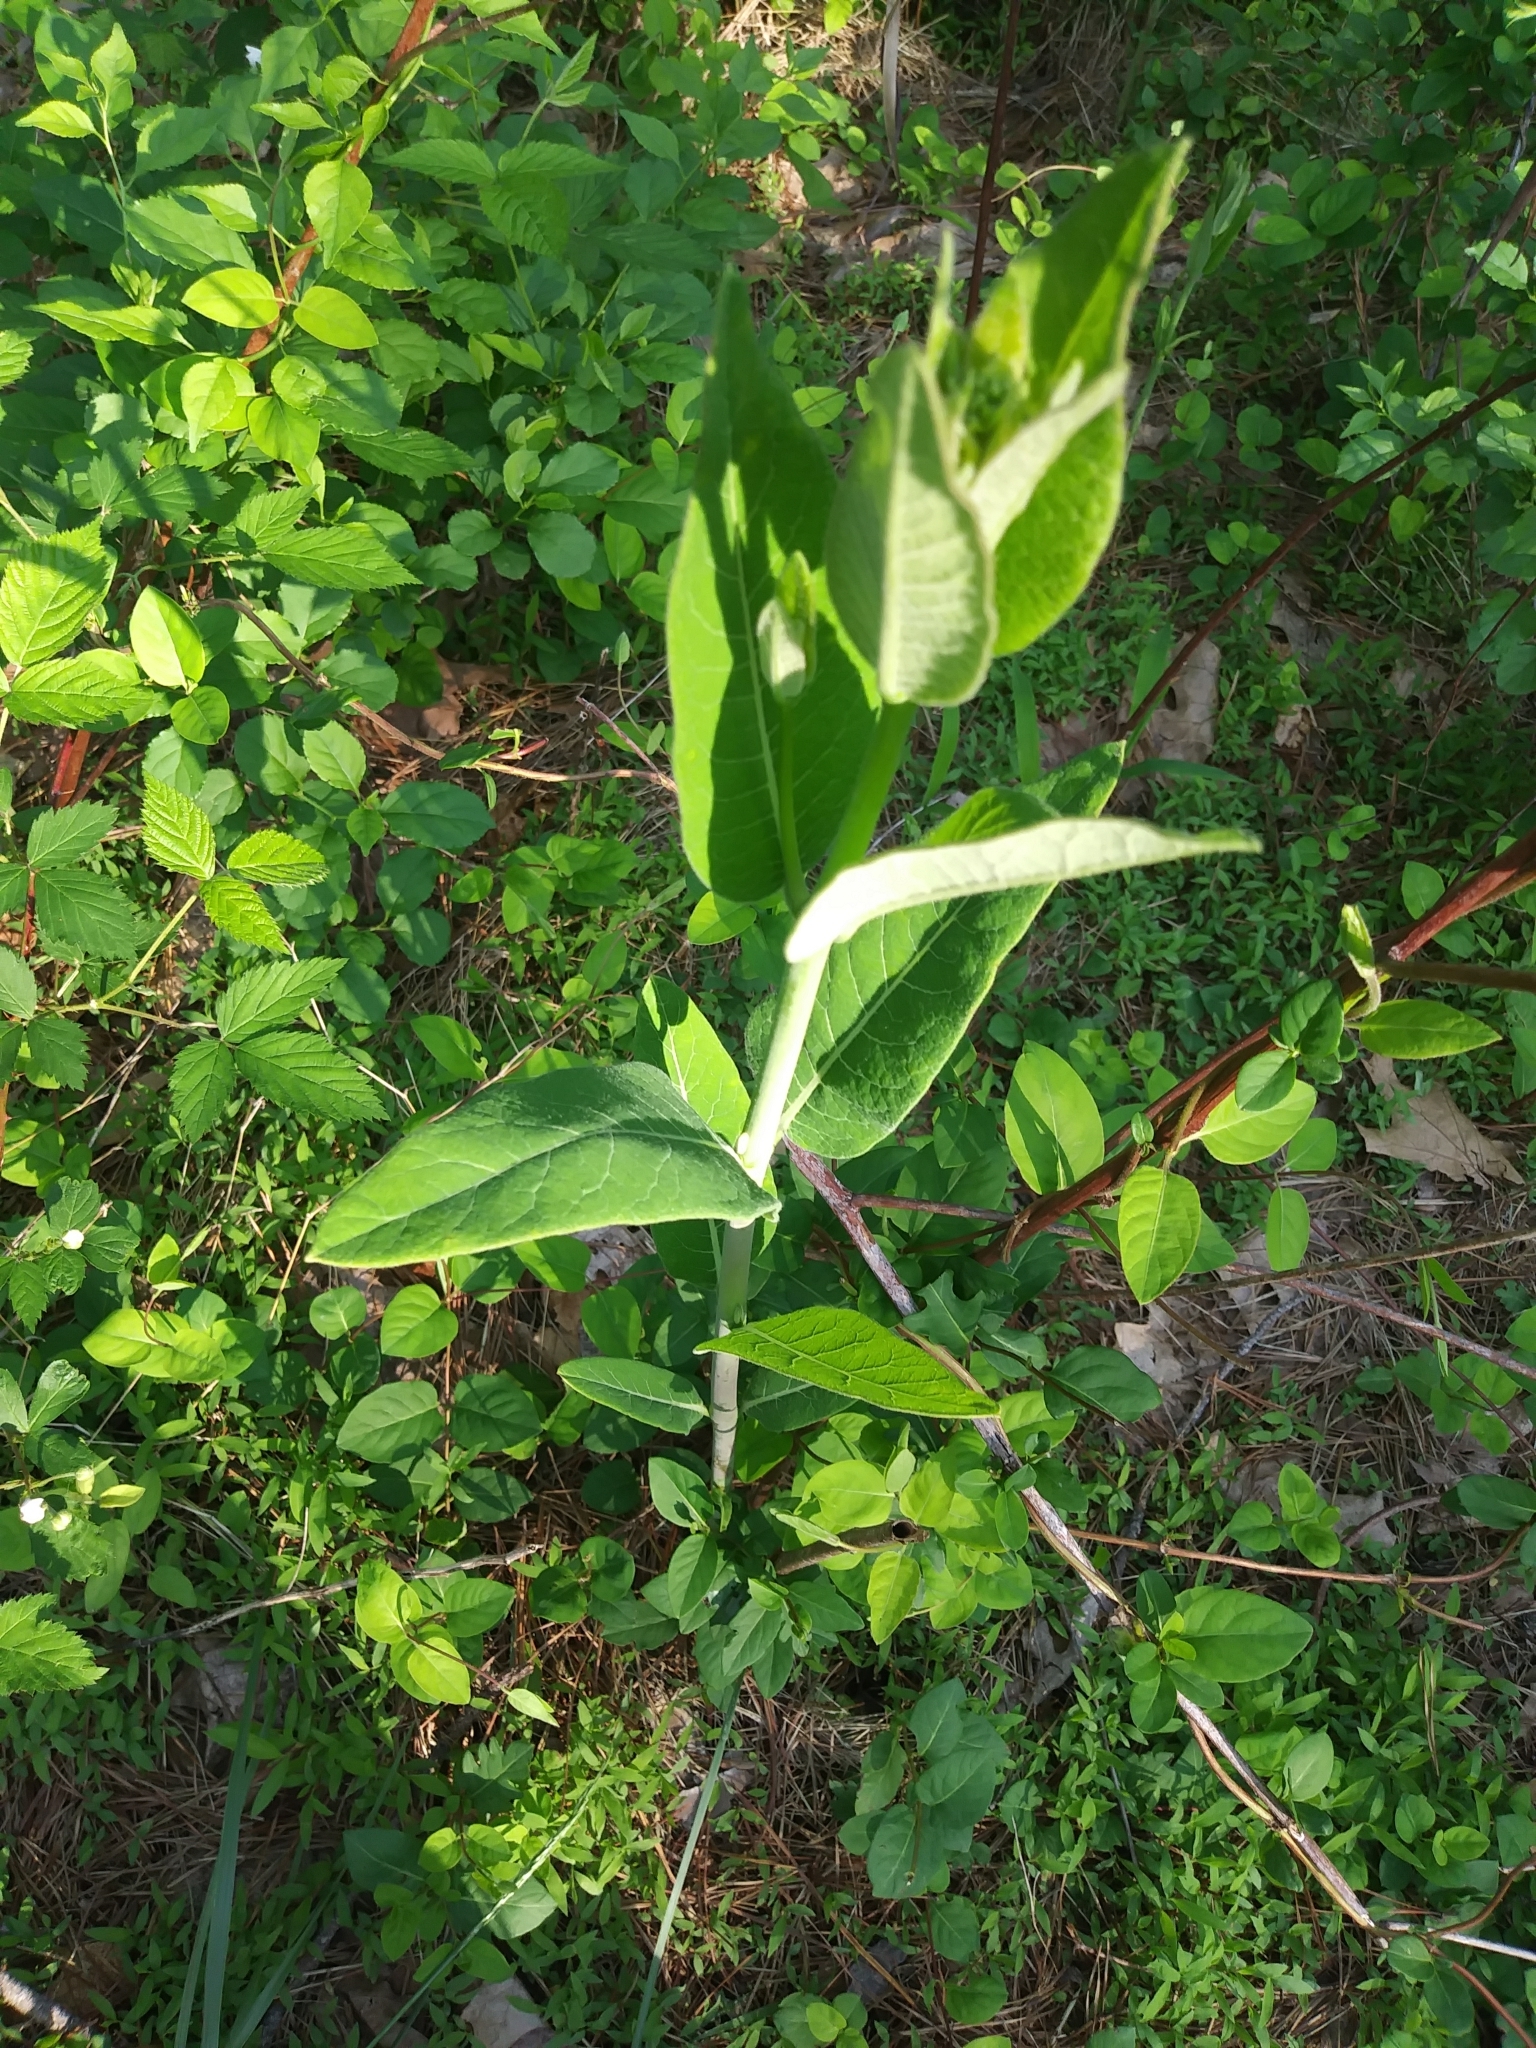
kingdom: Plantae
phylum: Tracheophyta
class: Magnoliopsida
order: Gentianales
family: Apocynaceae
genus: Apocynum
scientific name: Apocynum cannabinum
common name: Hemp dogbane
